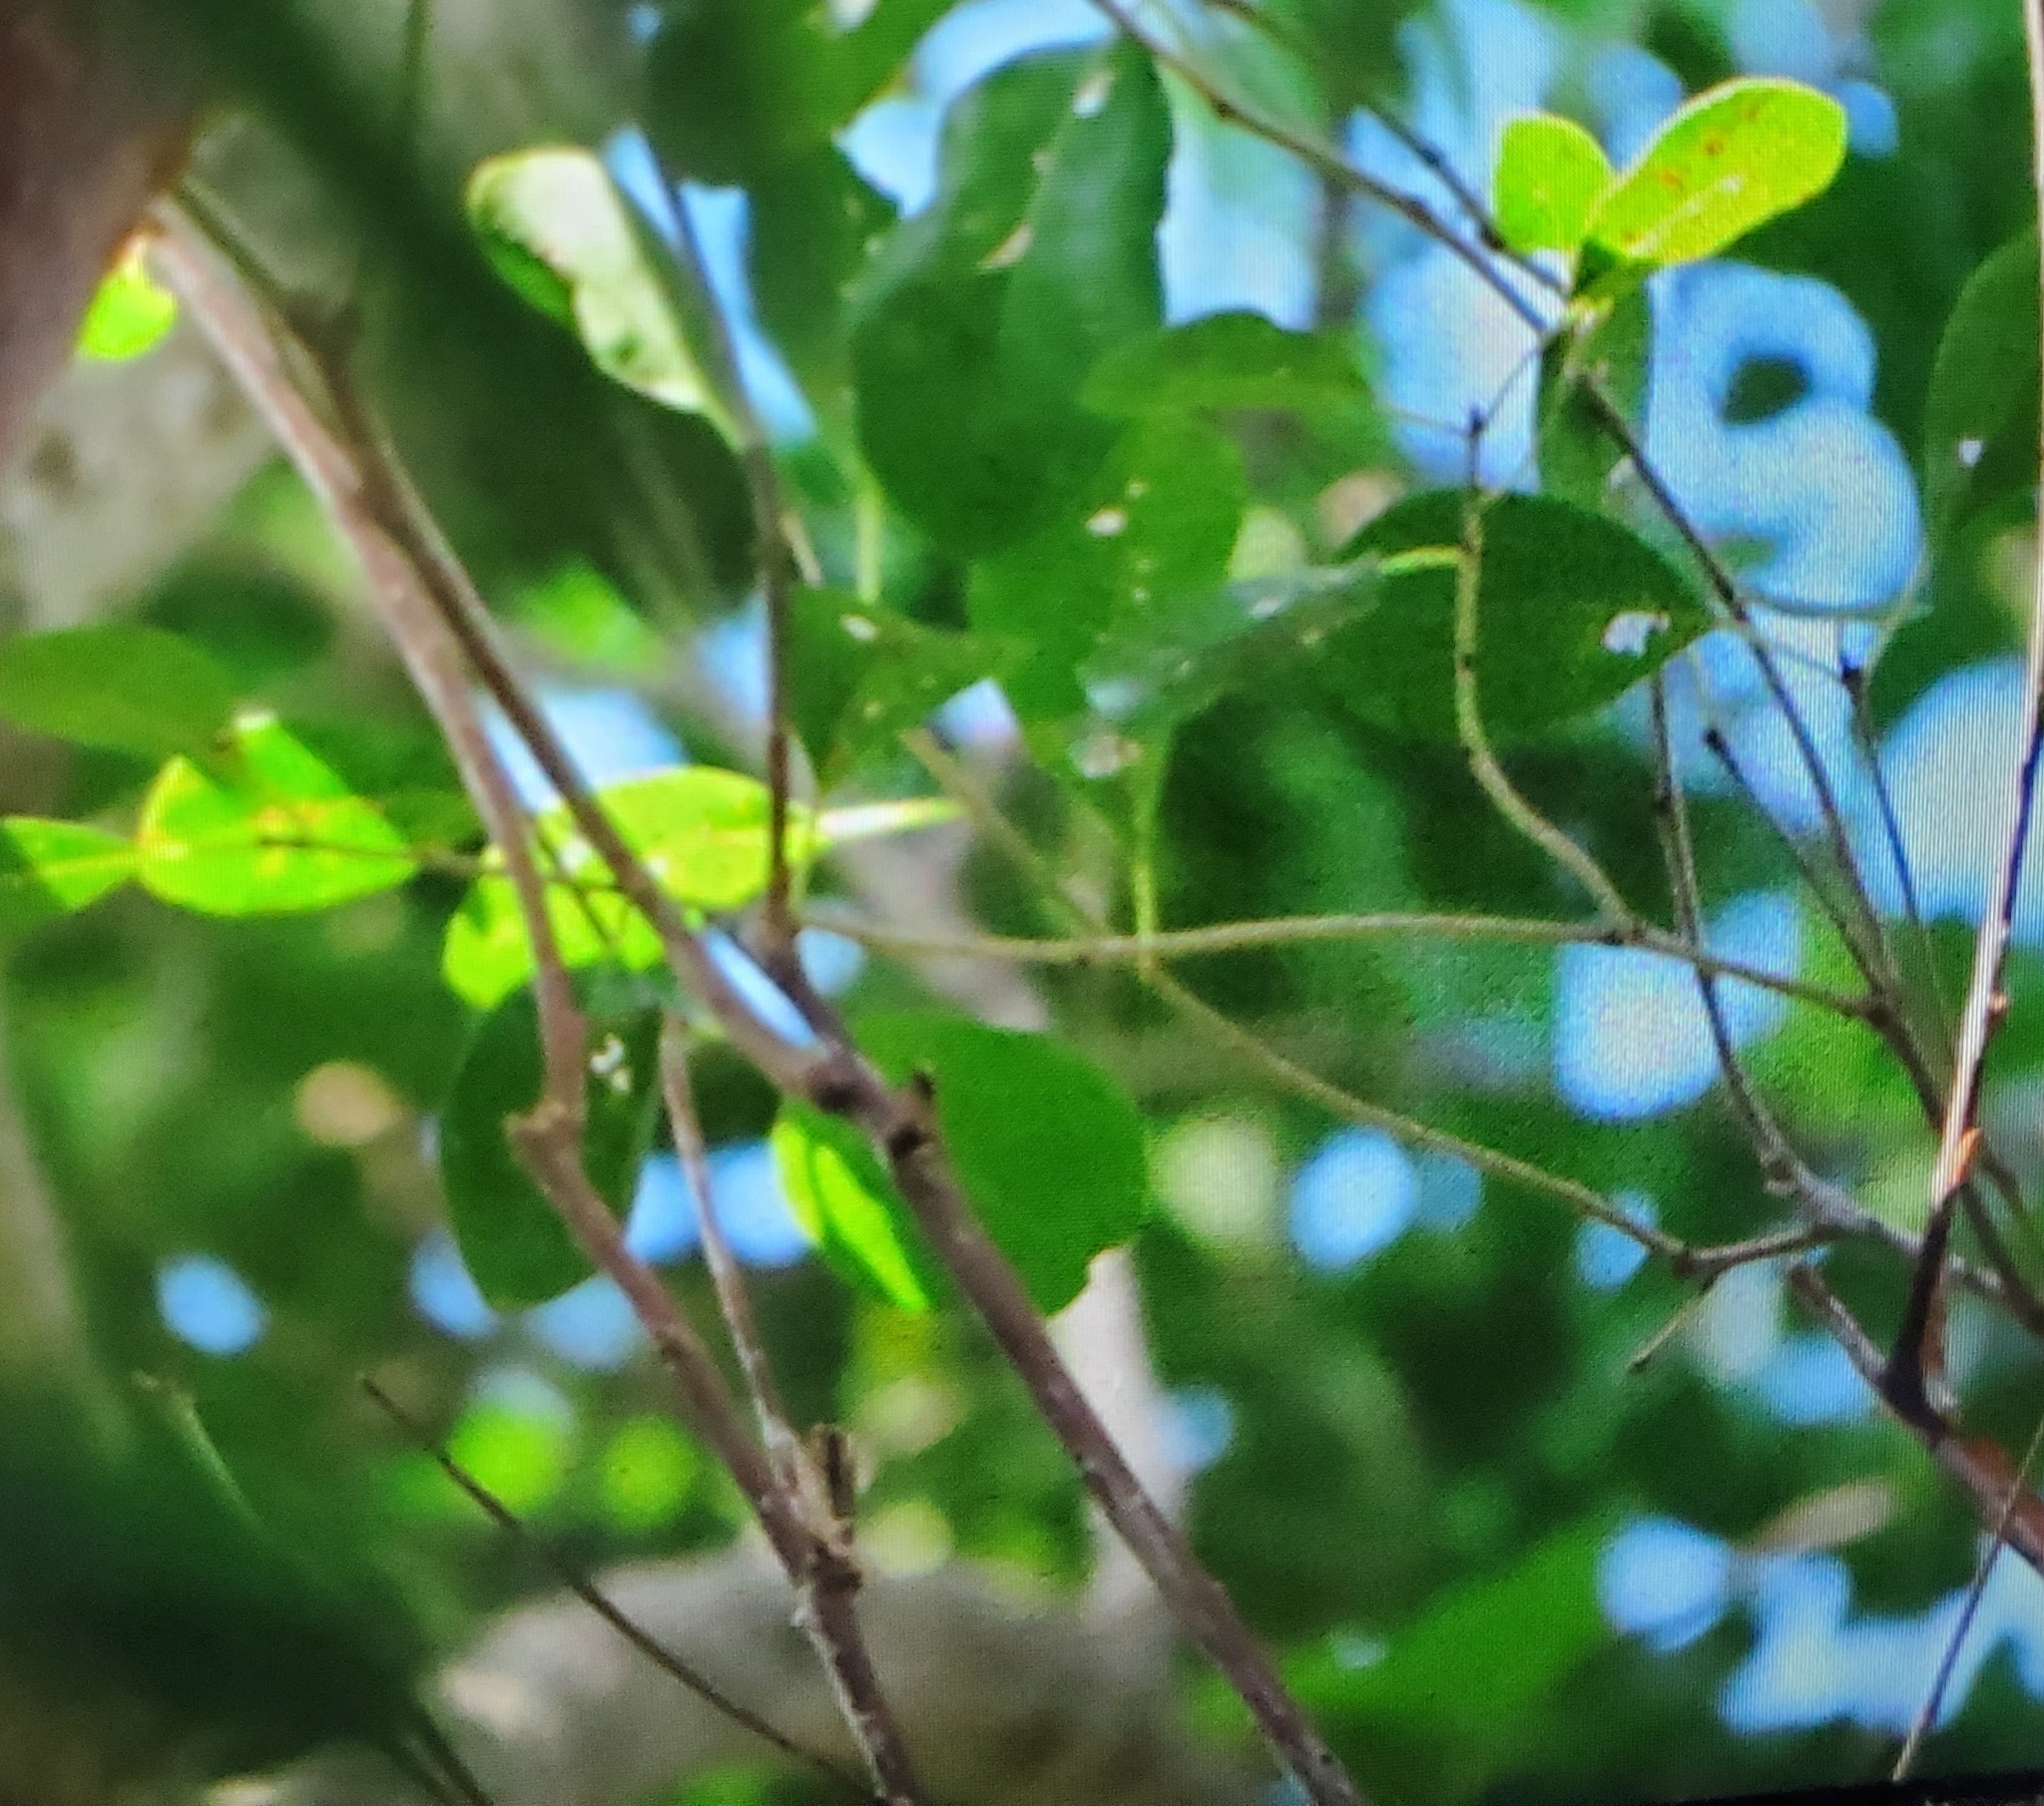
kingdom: Plantae
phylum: Tracheophyta
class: Magnoliopsida
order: Sapindales
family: Burseraceae
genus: Bursera
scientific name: Bursera simaruba
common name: Turpentine tree
